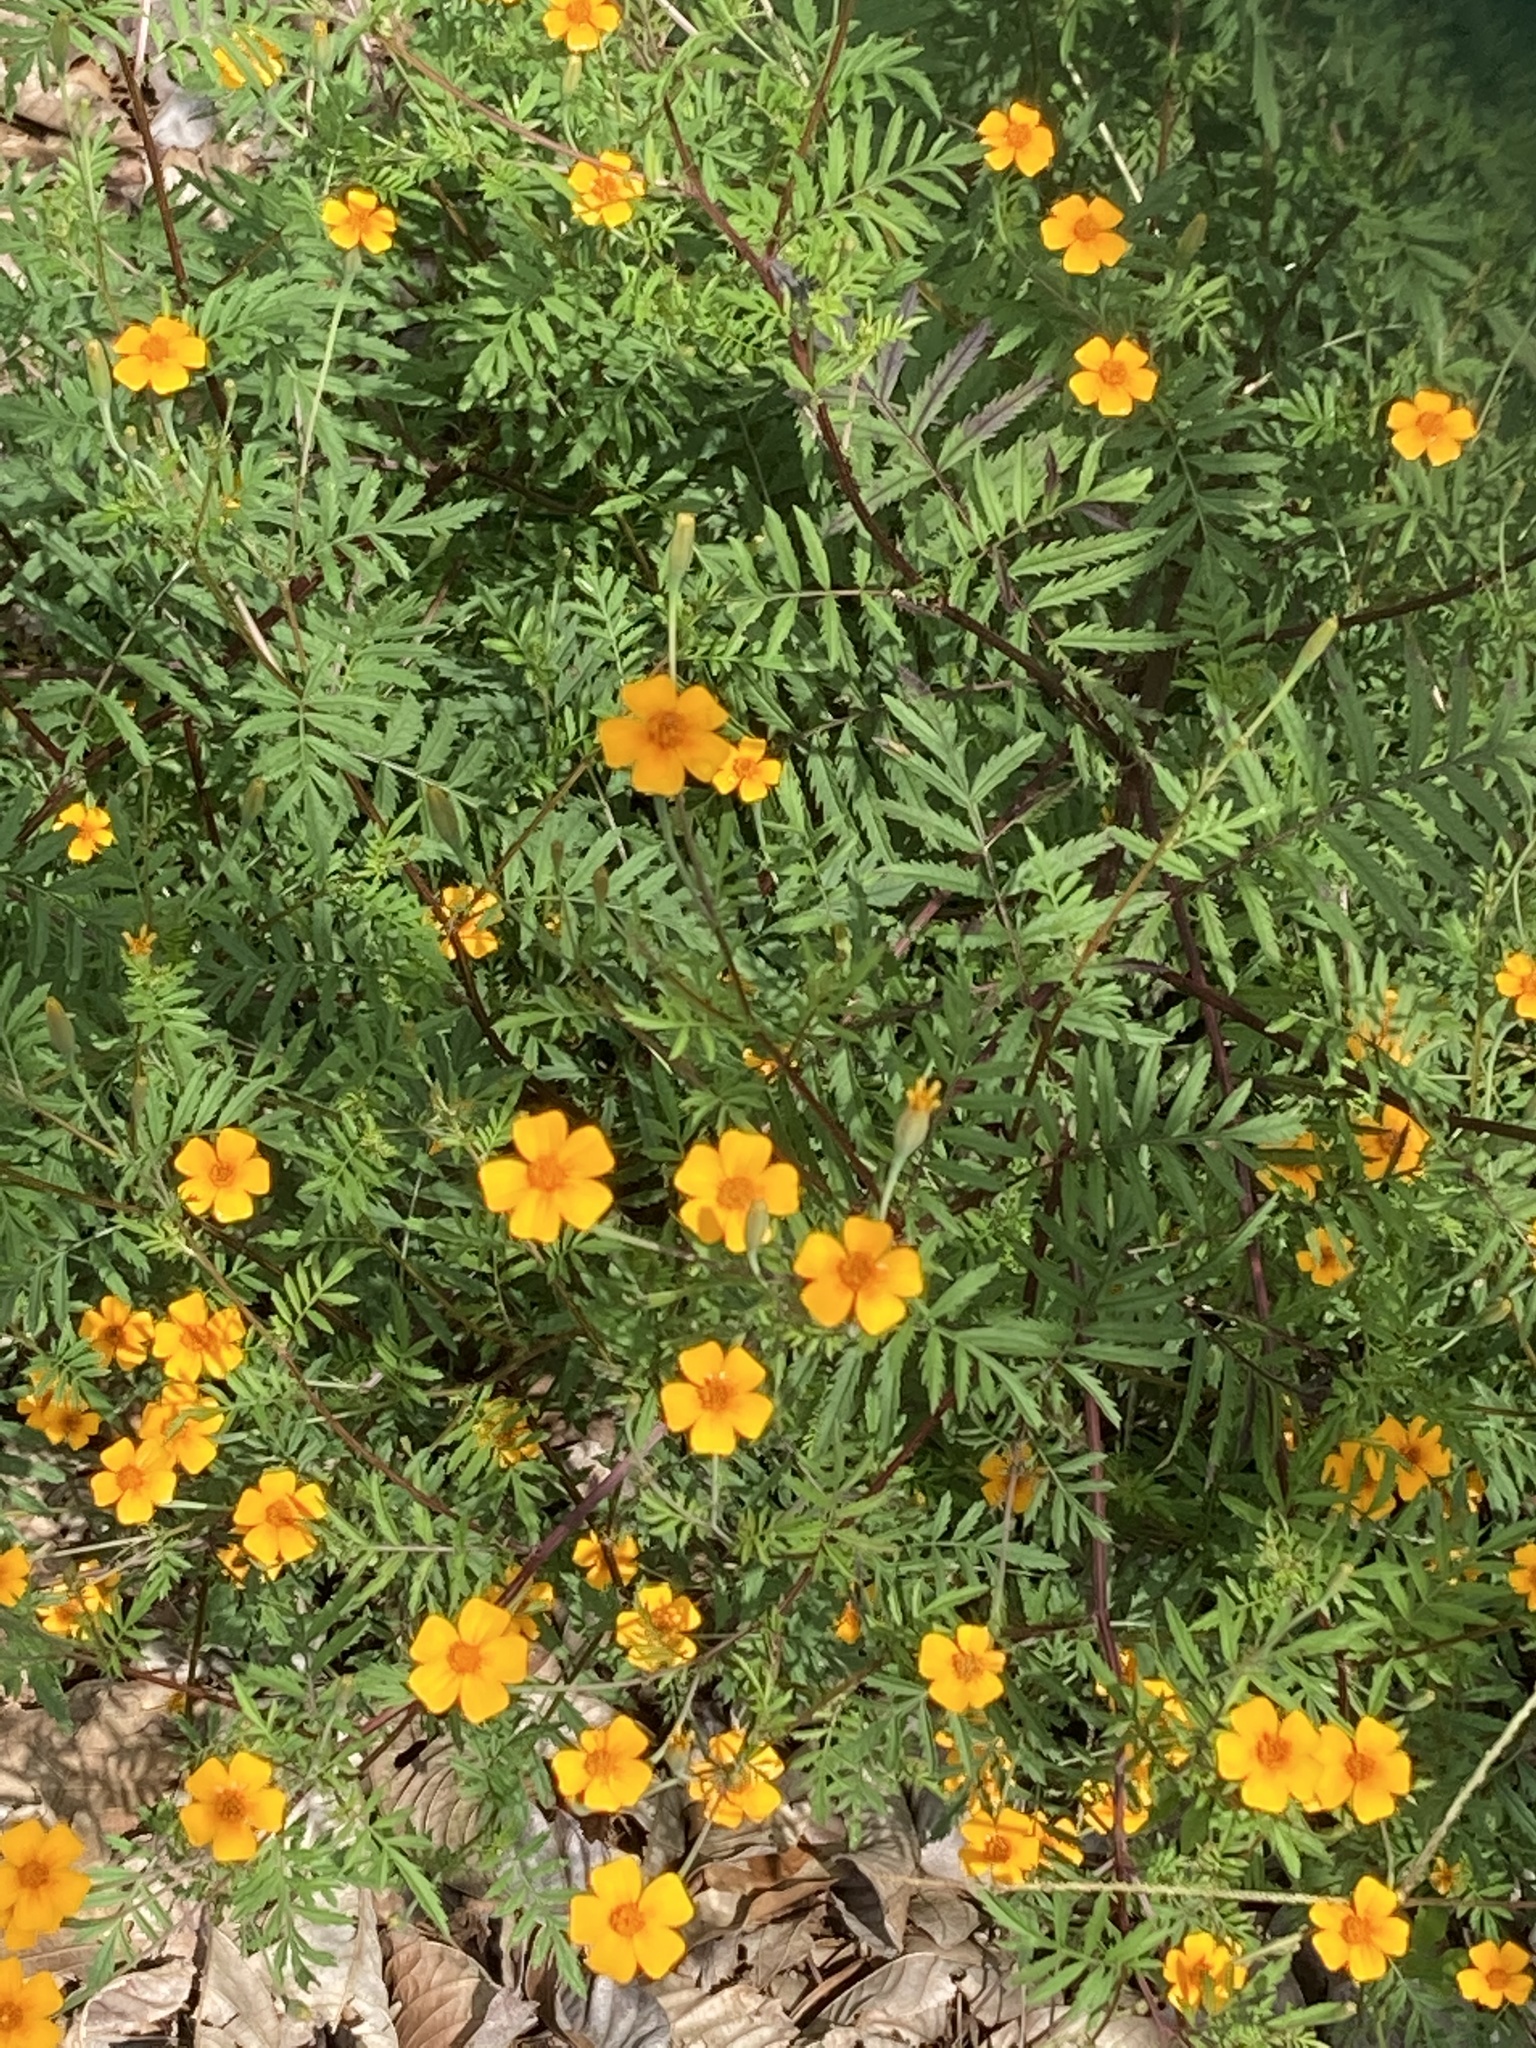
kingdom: Plantae
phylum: Tracheophyta
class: Magnoliopsida
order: Asterales
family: Asteraceae
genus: Tagetes
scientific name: Tagetes erecta
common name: African marigold
